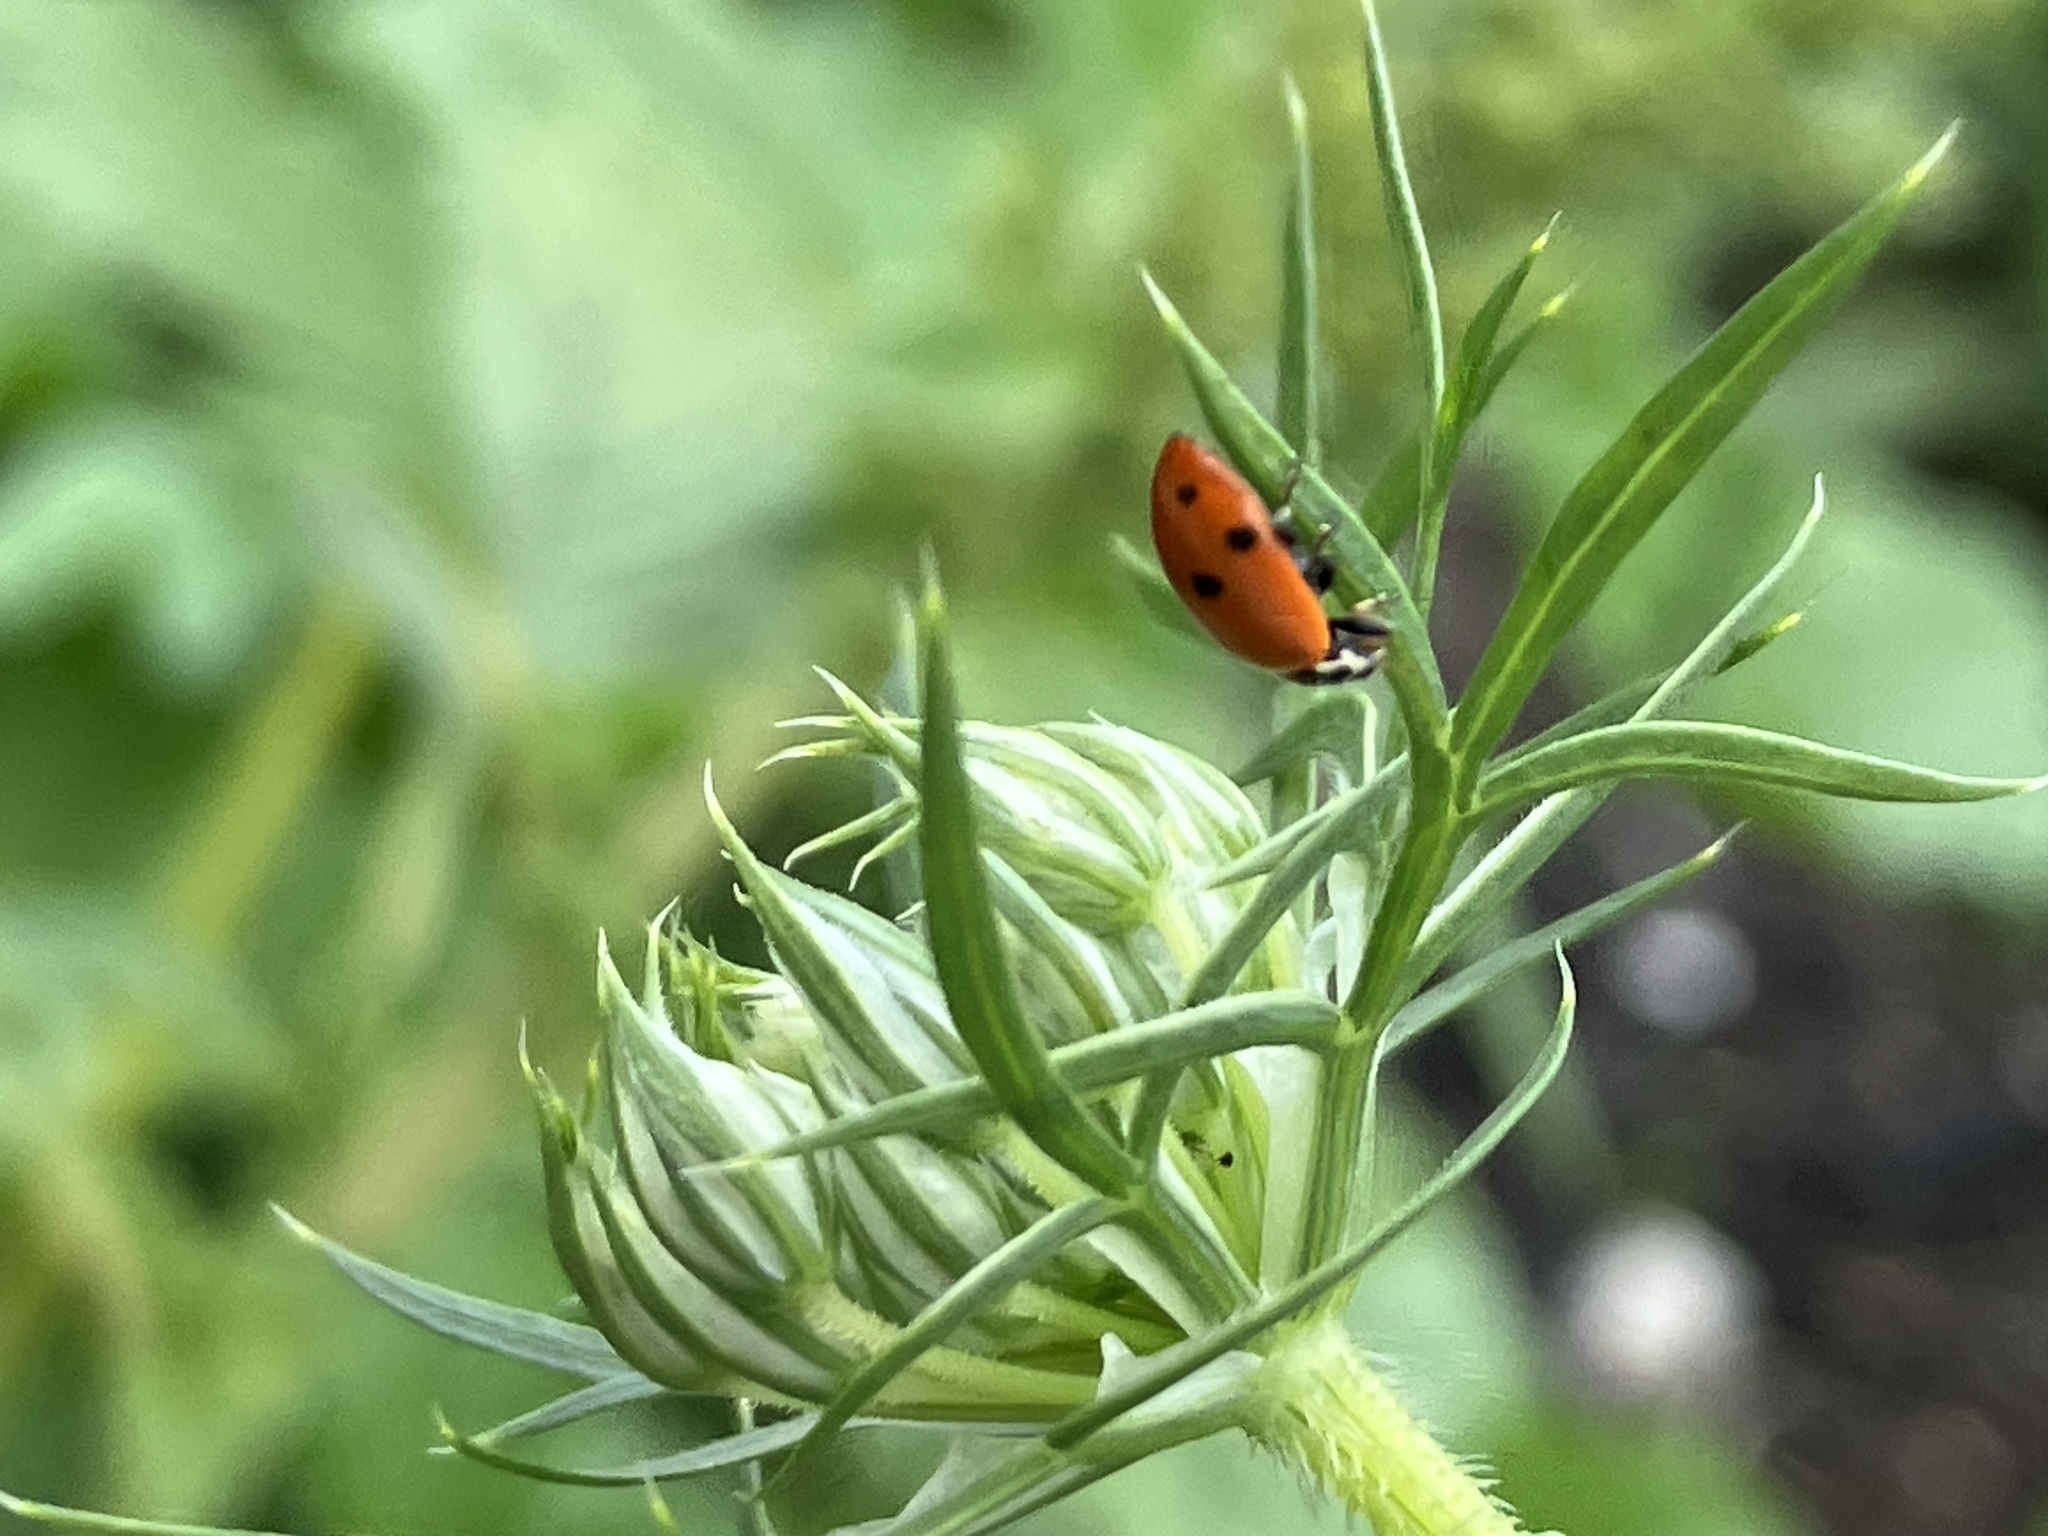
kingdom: Animalia
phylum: Arthropoda
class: Insecta
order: Coleoptera
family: Coccinellidae
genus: Hippodamia
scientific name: Hippodamia
